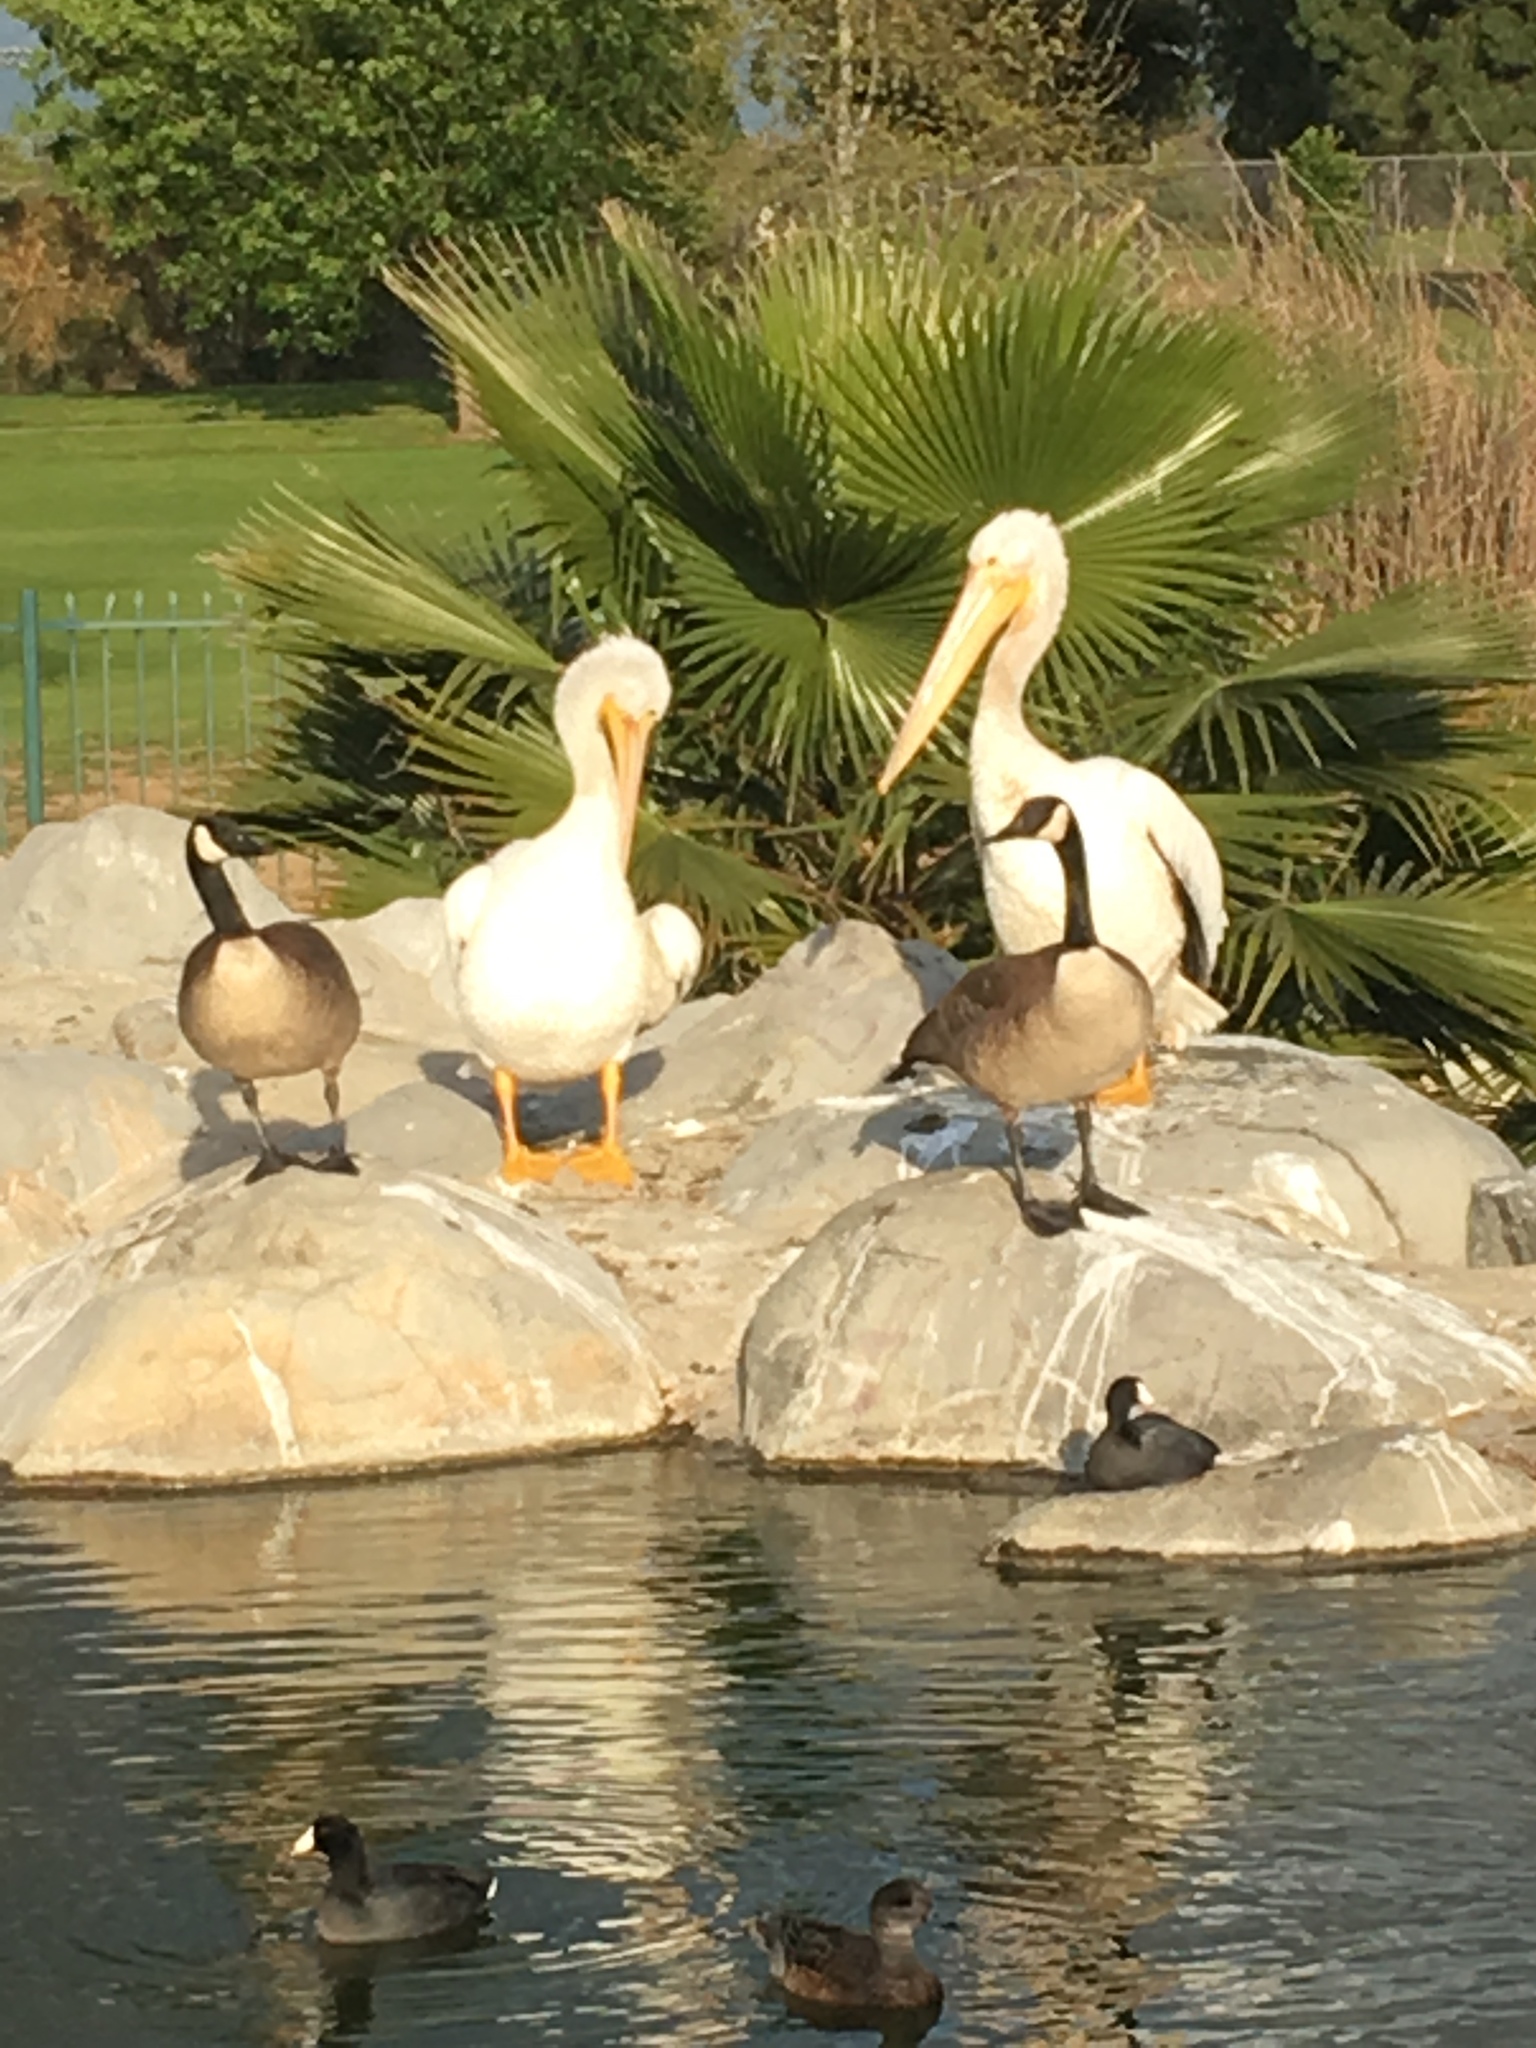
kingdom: Animalia
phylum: Chordata
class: Aves
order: Pelecaniformes
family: Pelecanidae
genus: Pelecanus
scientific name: Pelecanus erythrorhynchos
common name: American white pelican
